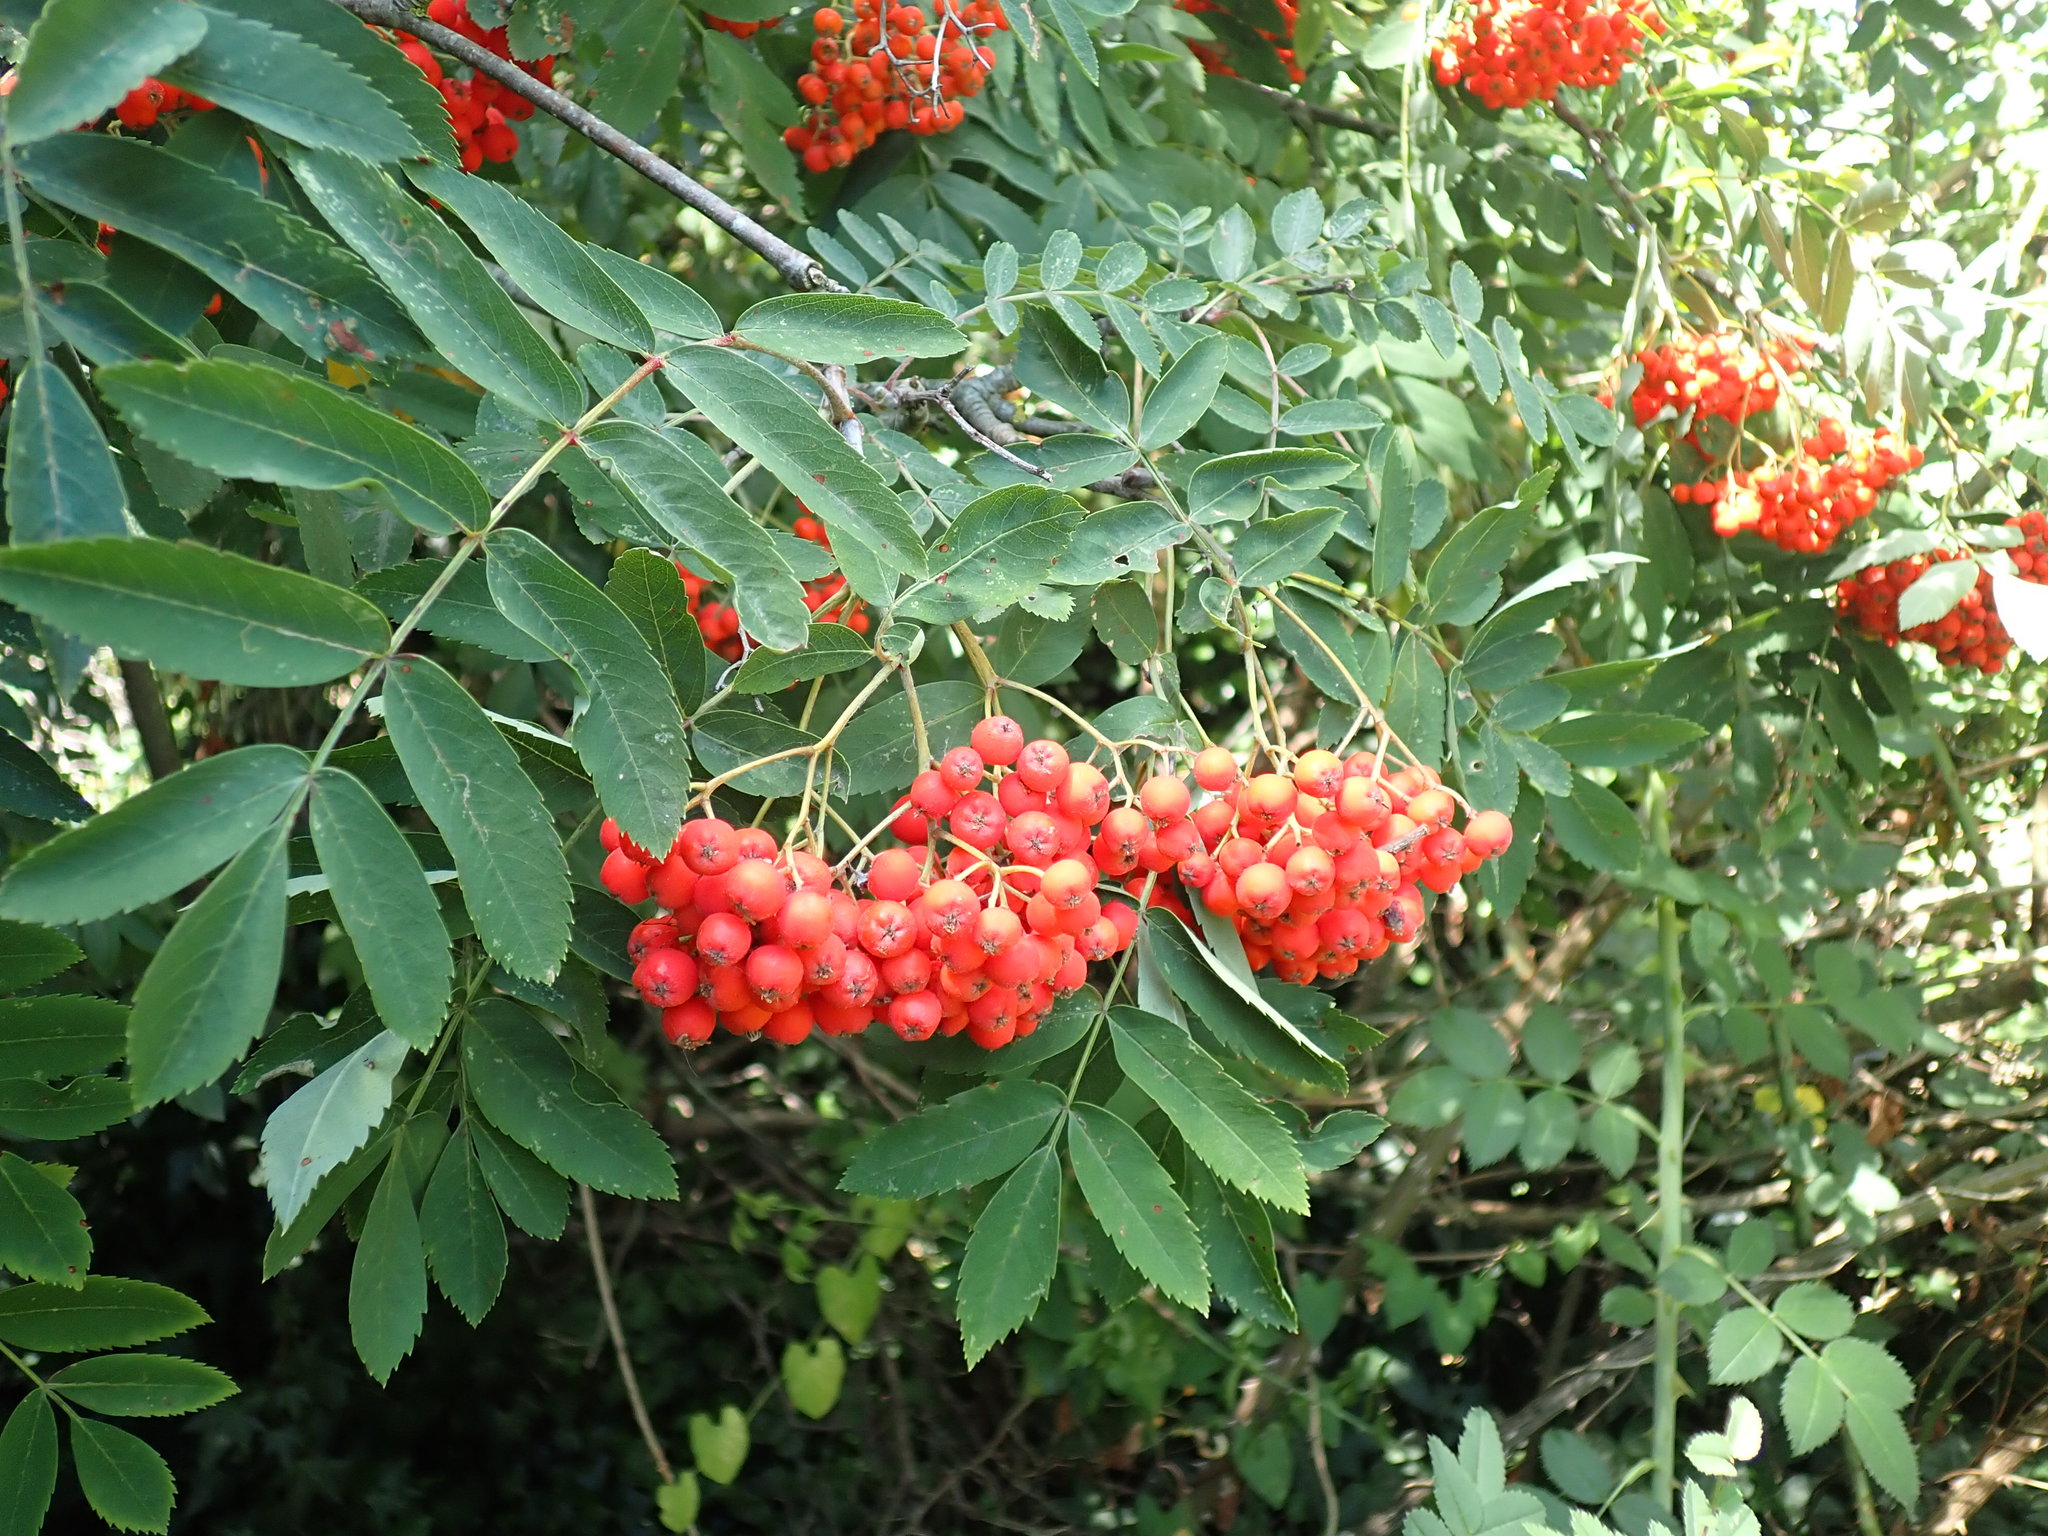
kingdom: Plantae
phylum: Tracheophyta
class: Magnoliopsida
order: Rosales
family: Rosaceae
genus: Sorbus
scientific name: Sorbus aucuparia
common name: Rowan
